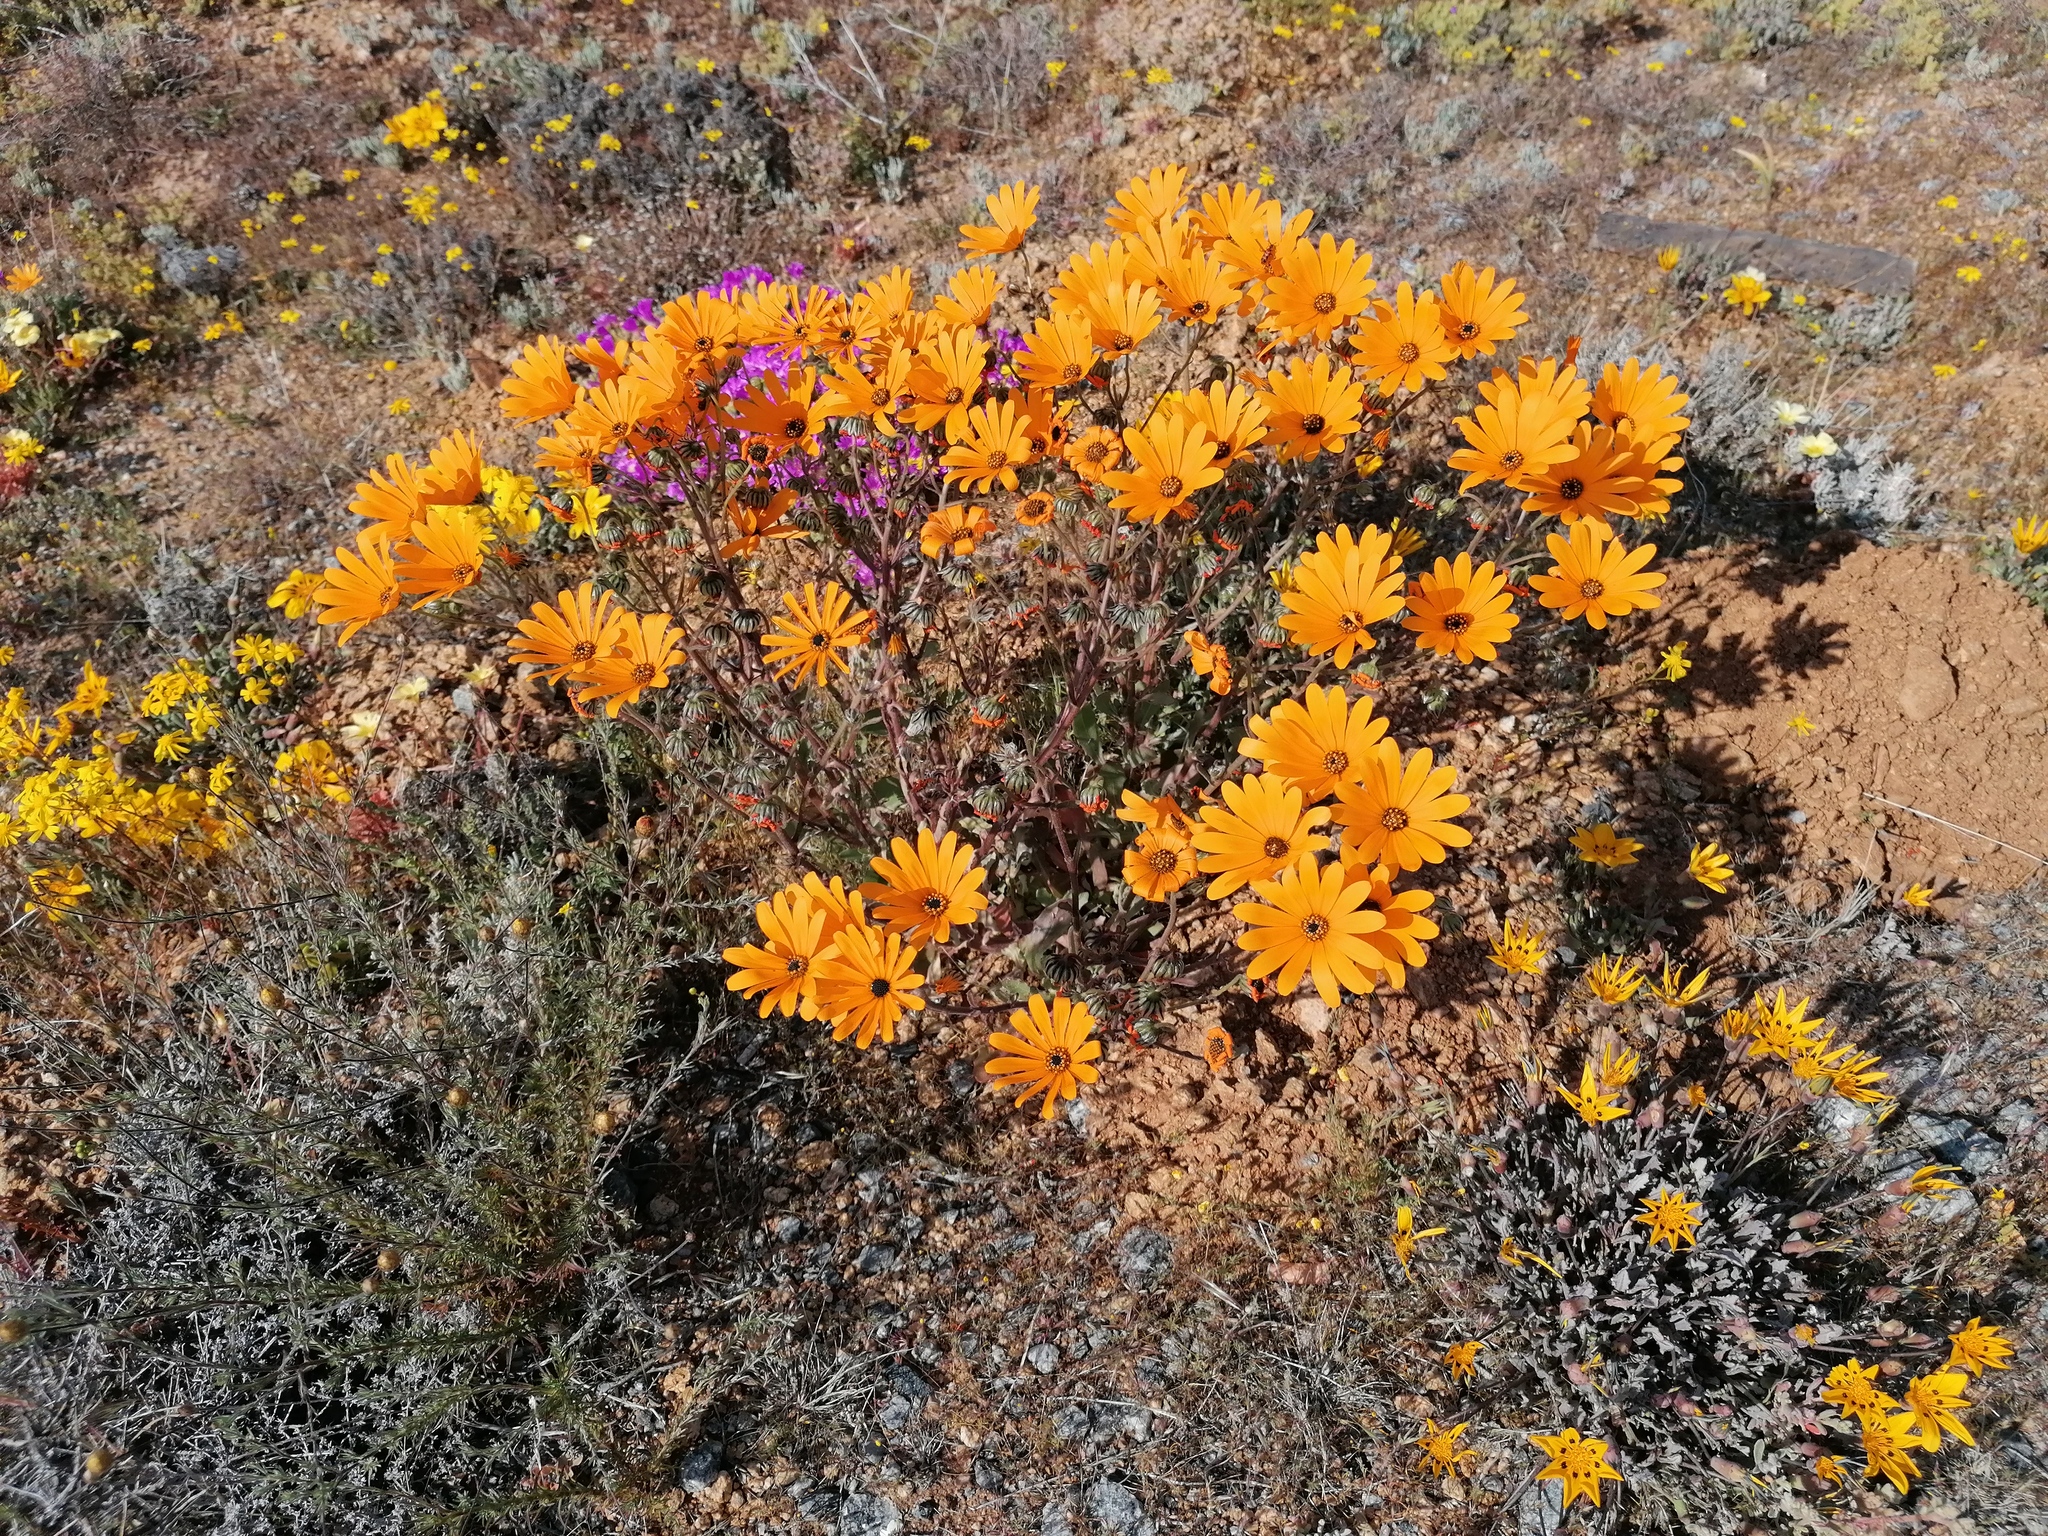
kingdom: Plantae
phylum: Tracheophyta
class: Magnoliopsida
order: Asterales
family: Asteraceae
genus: Osteospermum
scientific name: Osteospermum hyoseroides
